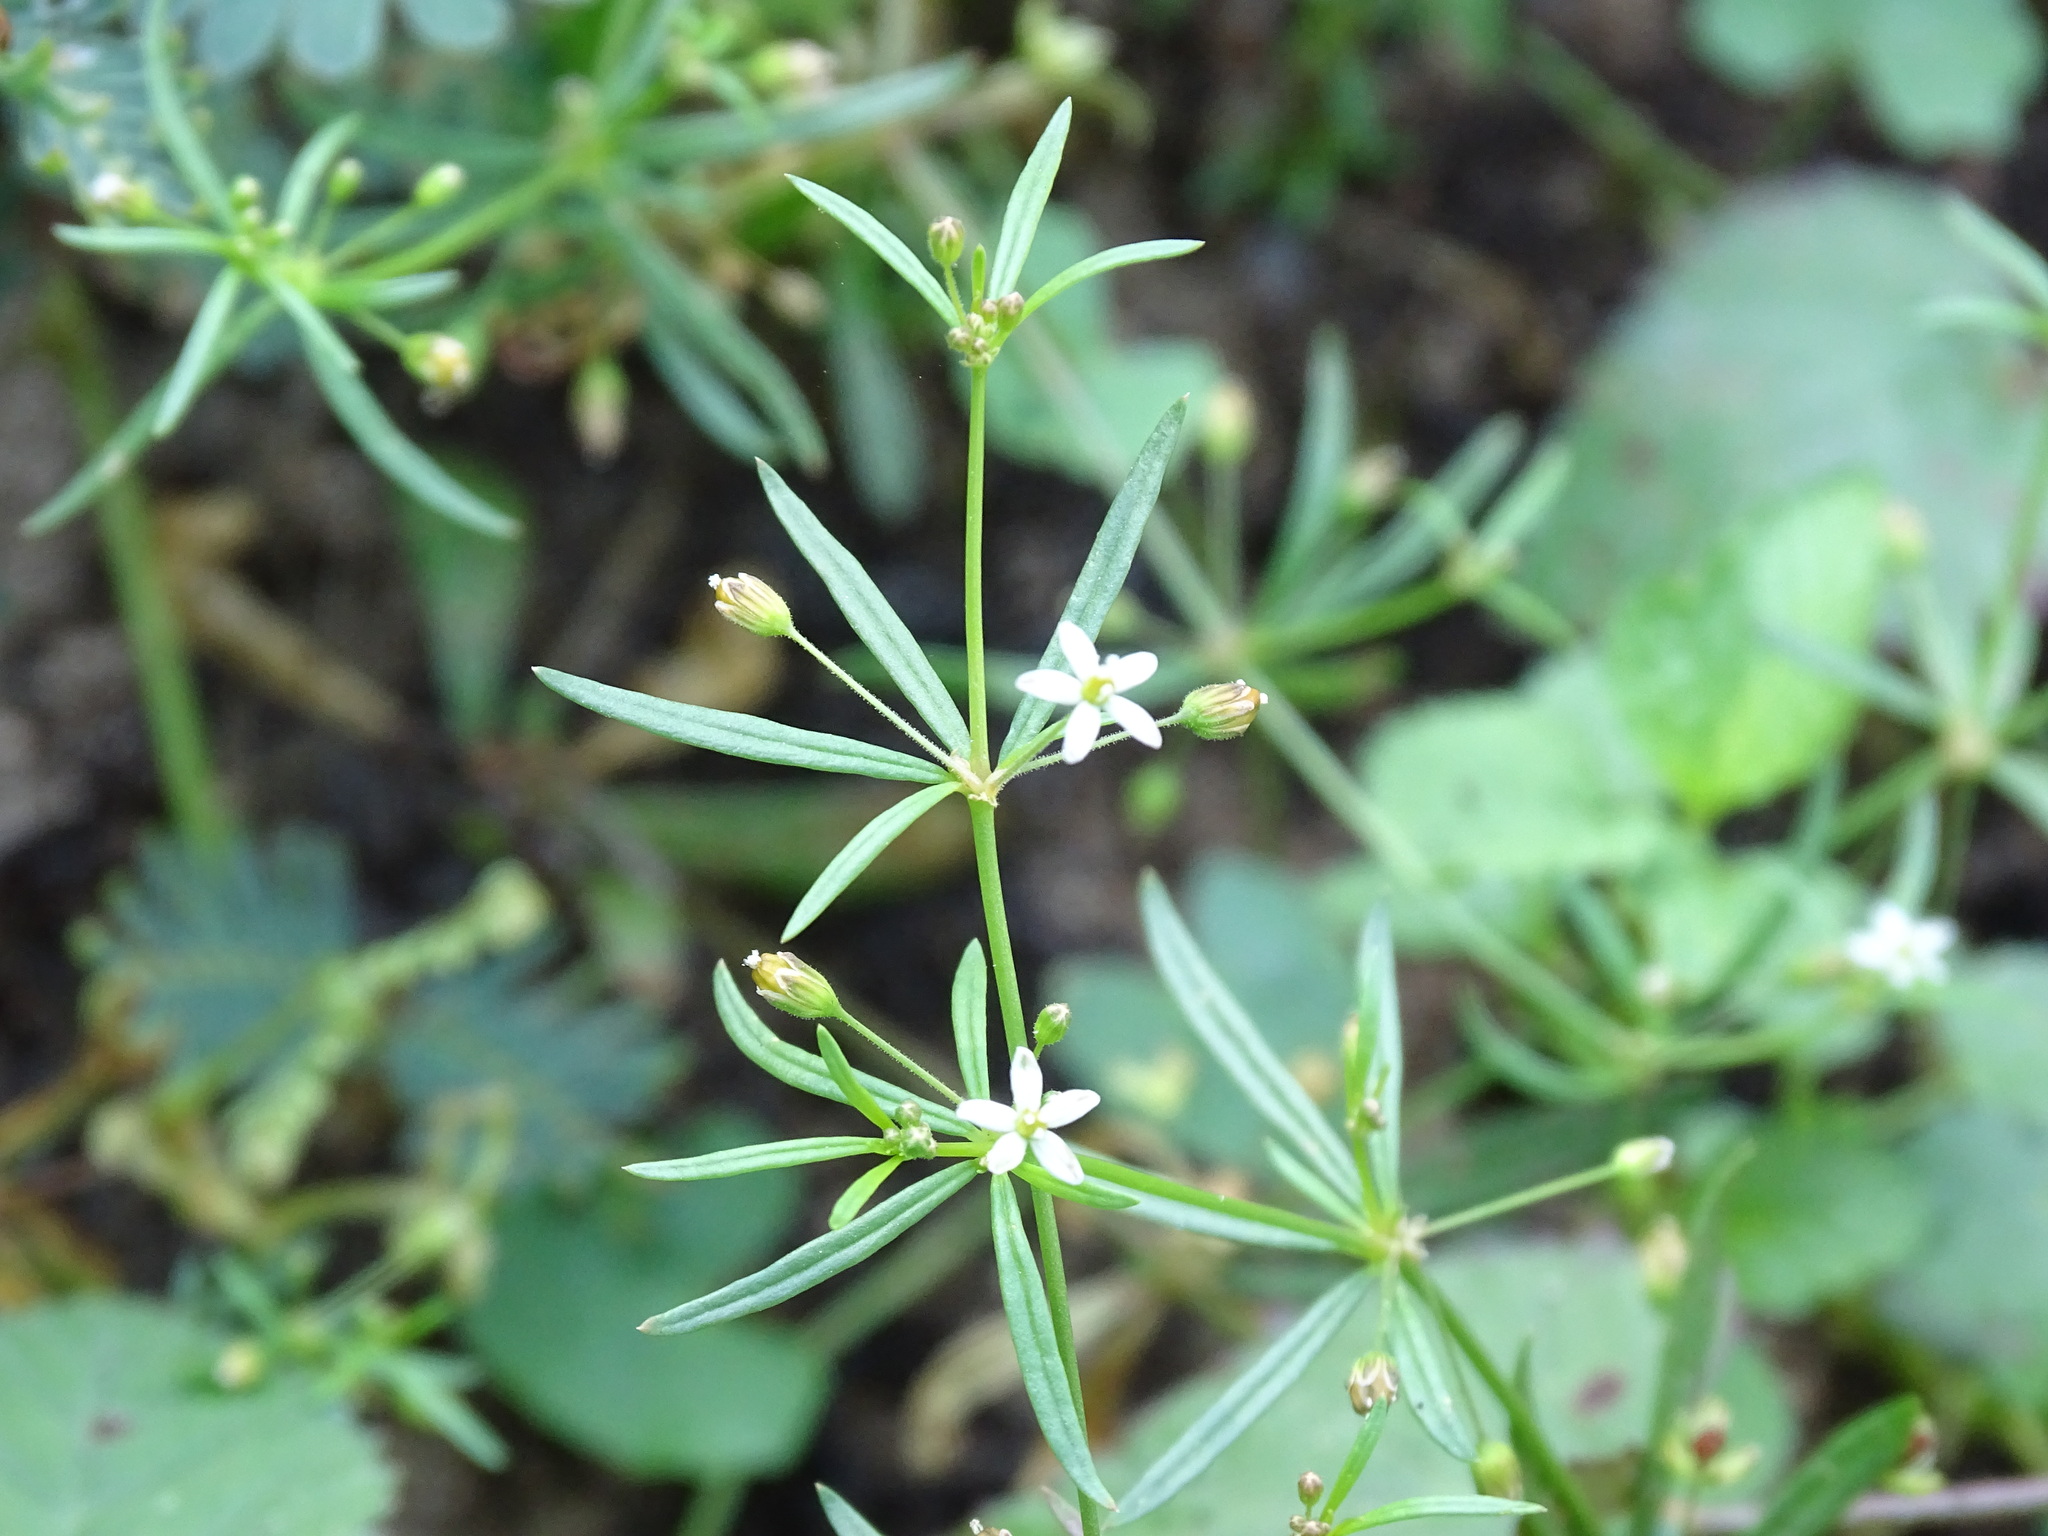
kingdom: Plantae
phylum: Tracheophyta
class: Magnoliopsida
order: Caryophyllales
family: Molluginaceae
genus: Mollugo
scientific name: Mollugo verticillata
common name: Green carpetweed
